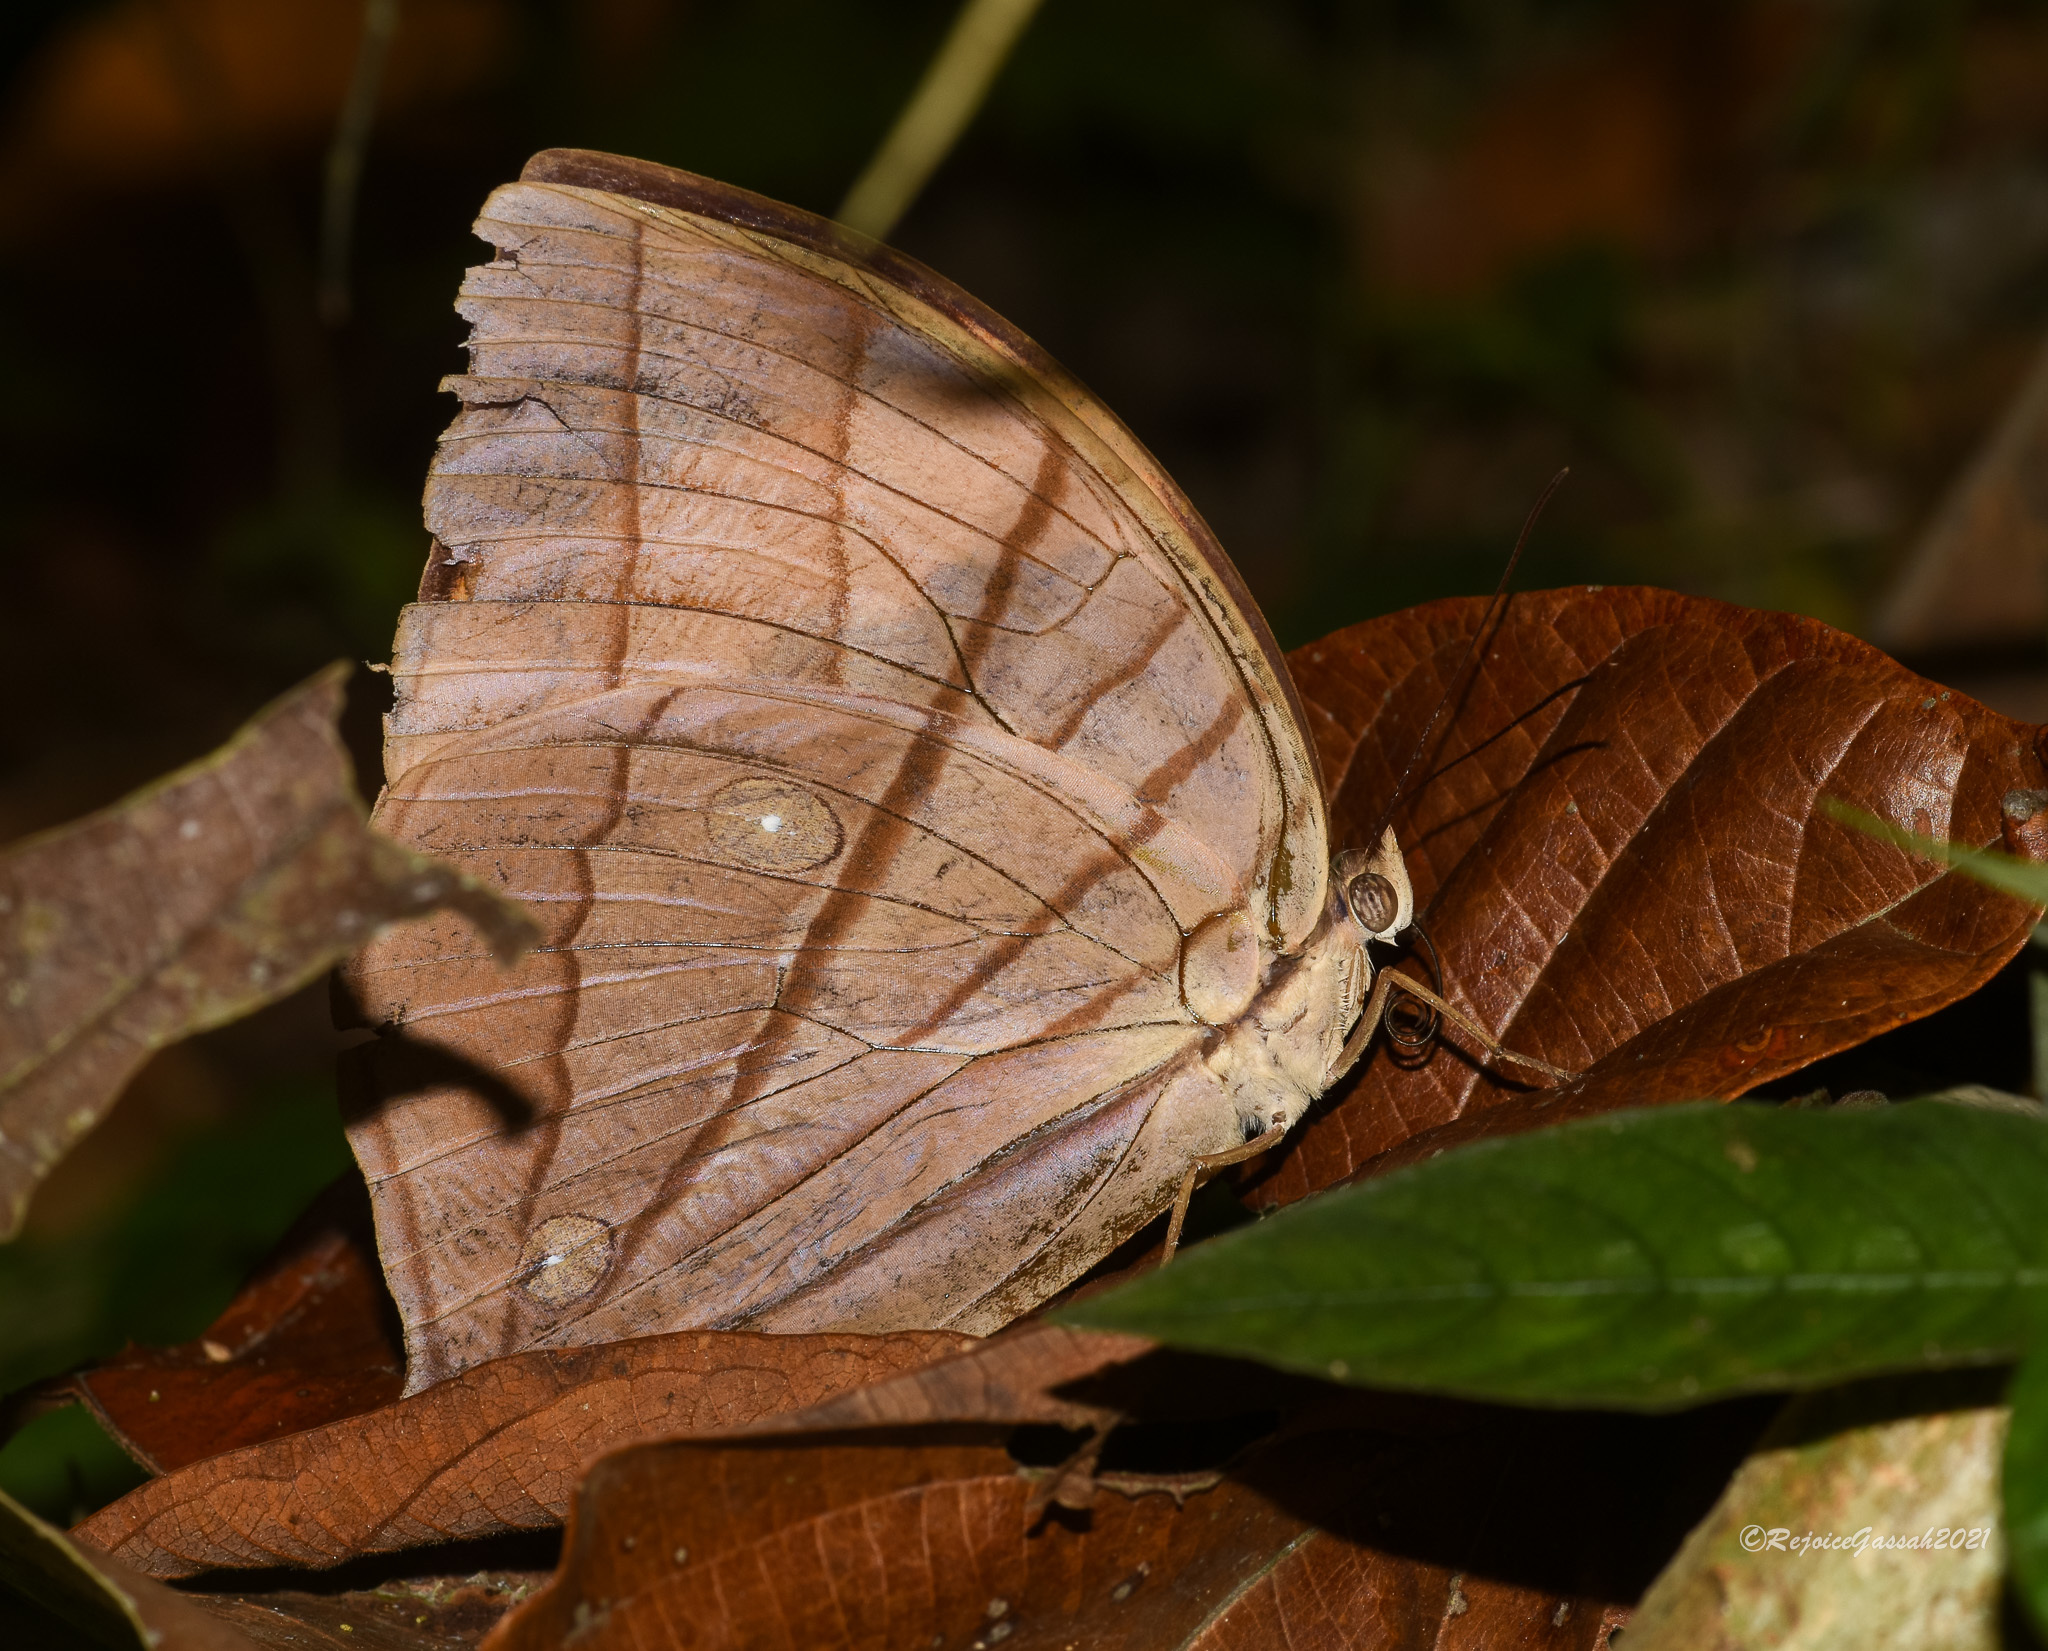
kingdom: Animalia
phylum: Arthropoda
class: Insecta
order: Lepidoptera
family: Nymphalidae
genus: Amathuxidia
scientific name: Amathuxidia amythaon
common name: Koh-i-noor
